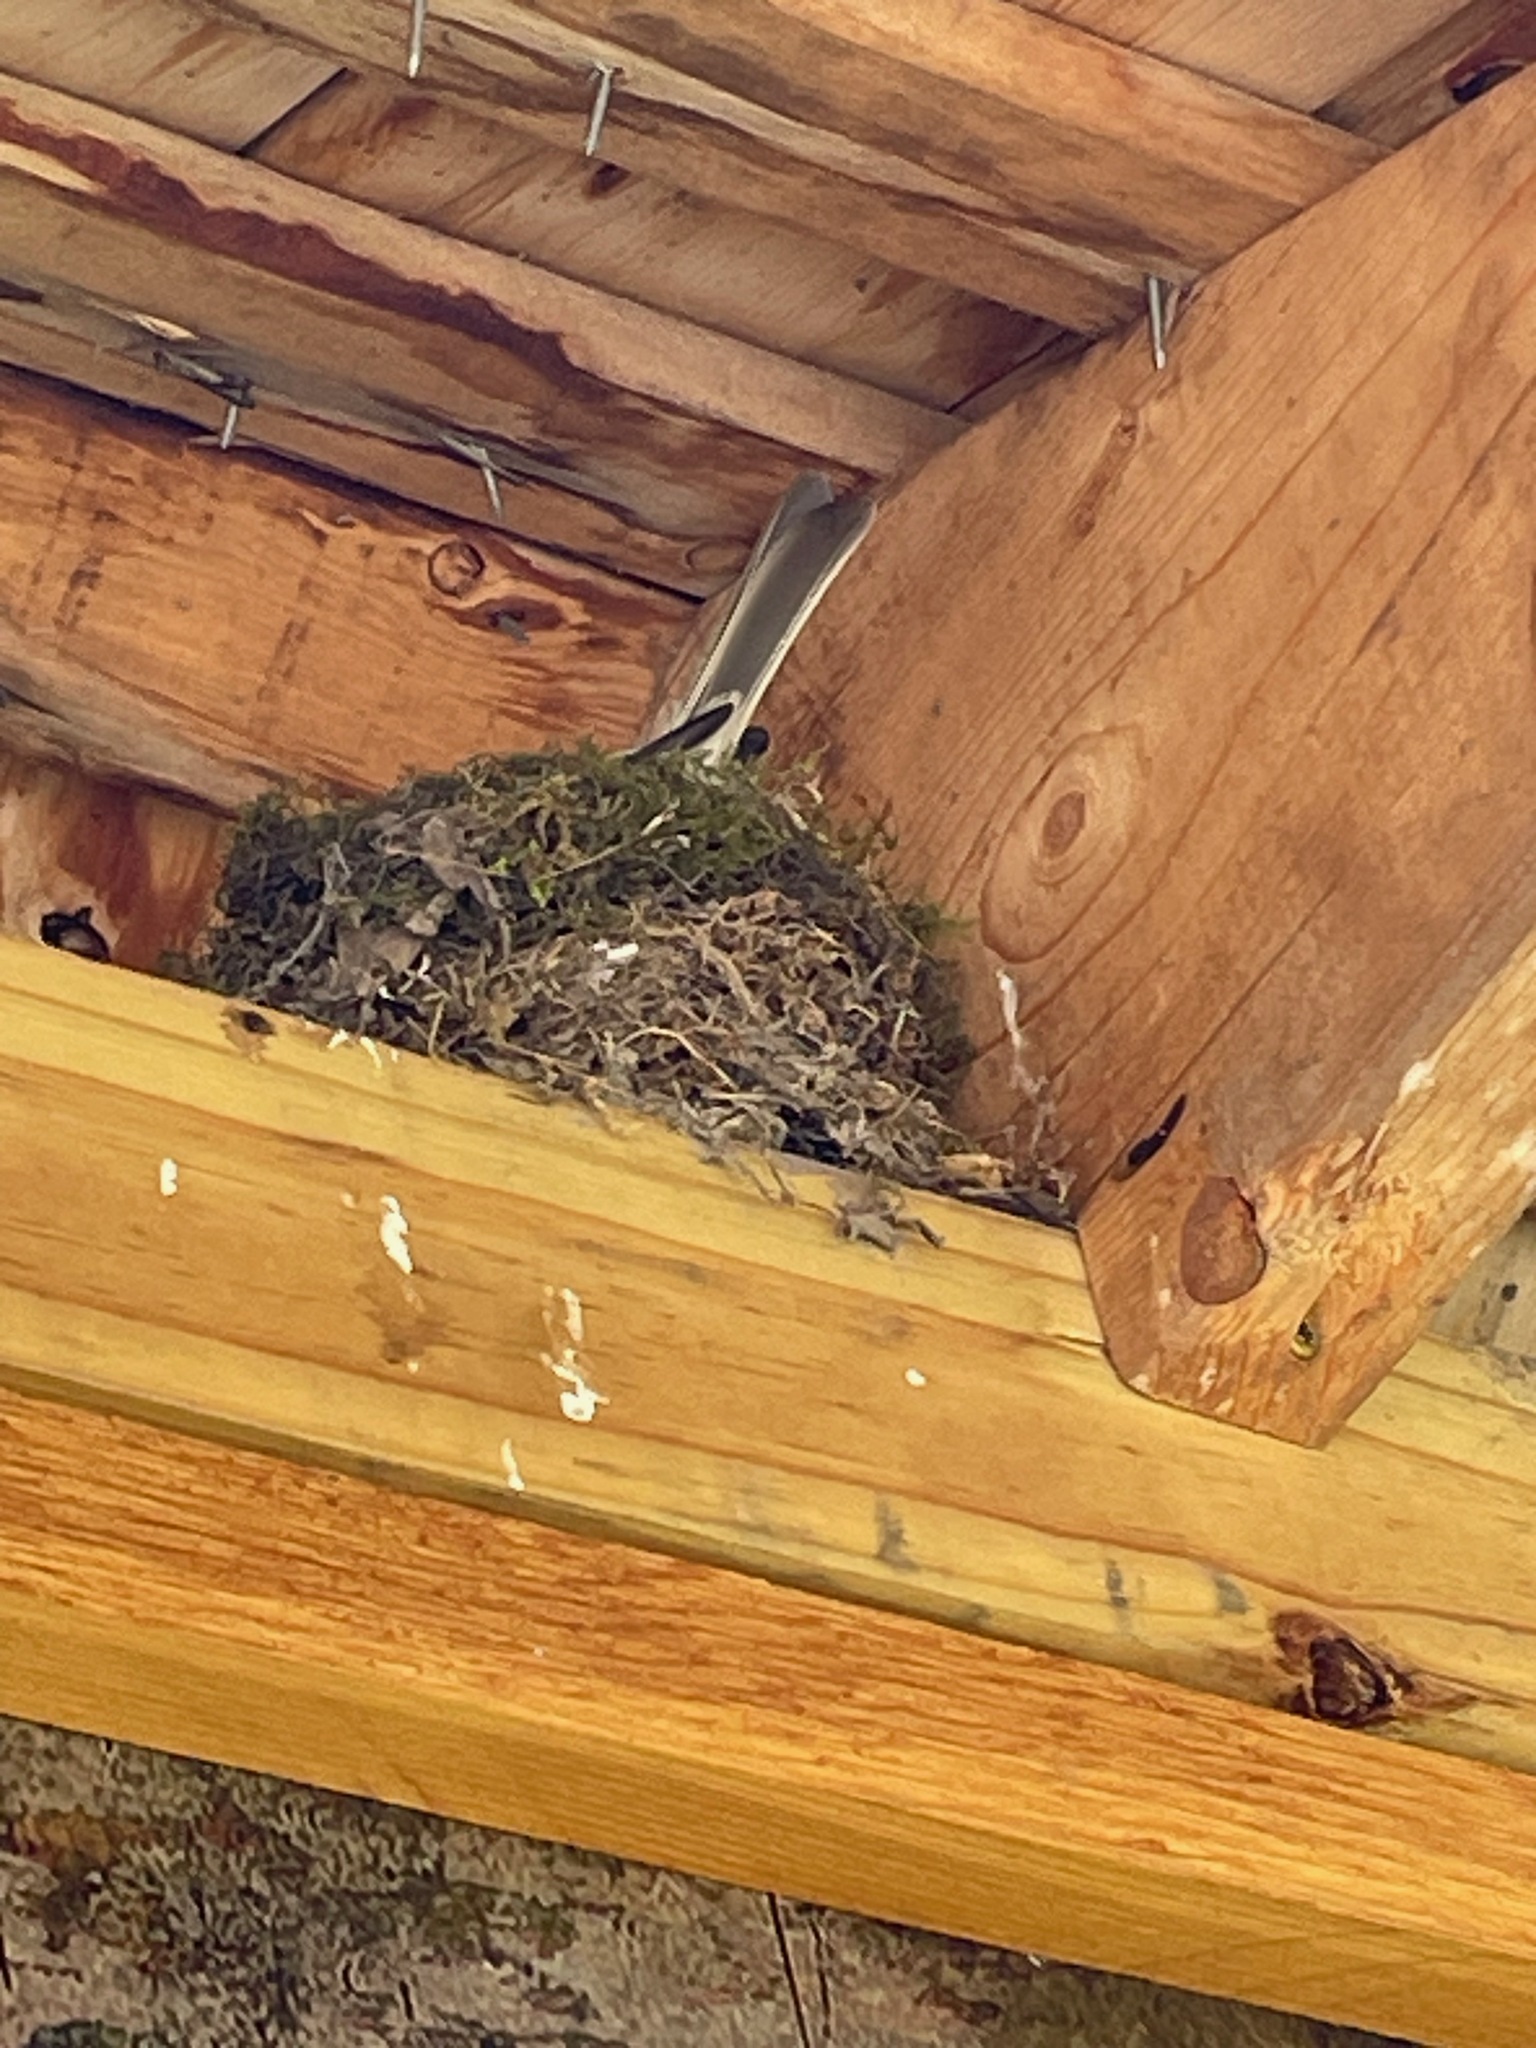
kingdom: Animalia
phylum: Chordata
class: Aves
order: Passeriformes
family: Tyrannidae
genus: Sayornis
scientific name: Sayornis phoebe
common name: Eastern phoebe
